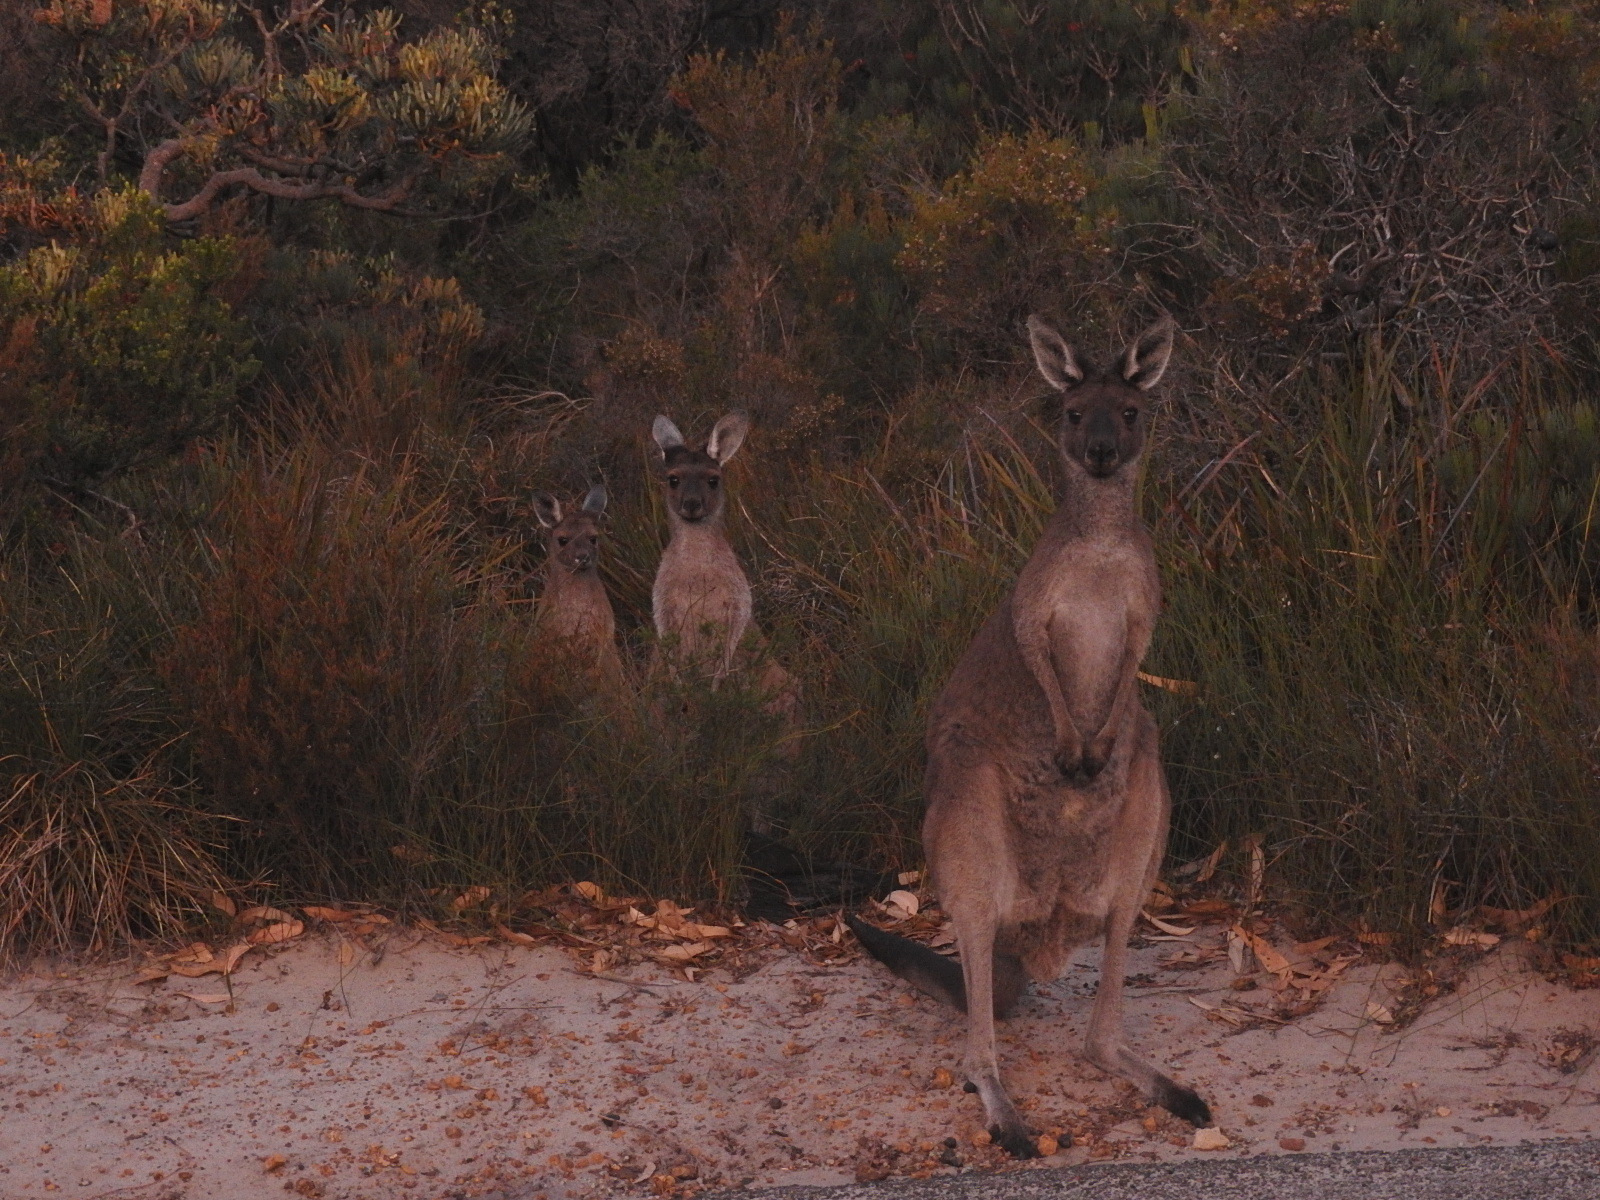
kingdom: Animalia
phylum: Chordata
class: Mammalia
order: Diprotodontia
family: Macropodidae
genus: Macropus
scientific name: Macropus fuliginosus
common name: Western grey kangaroo
